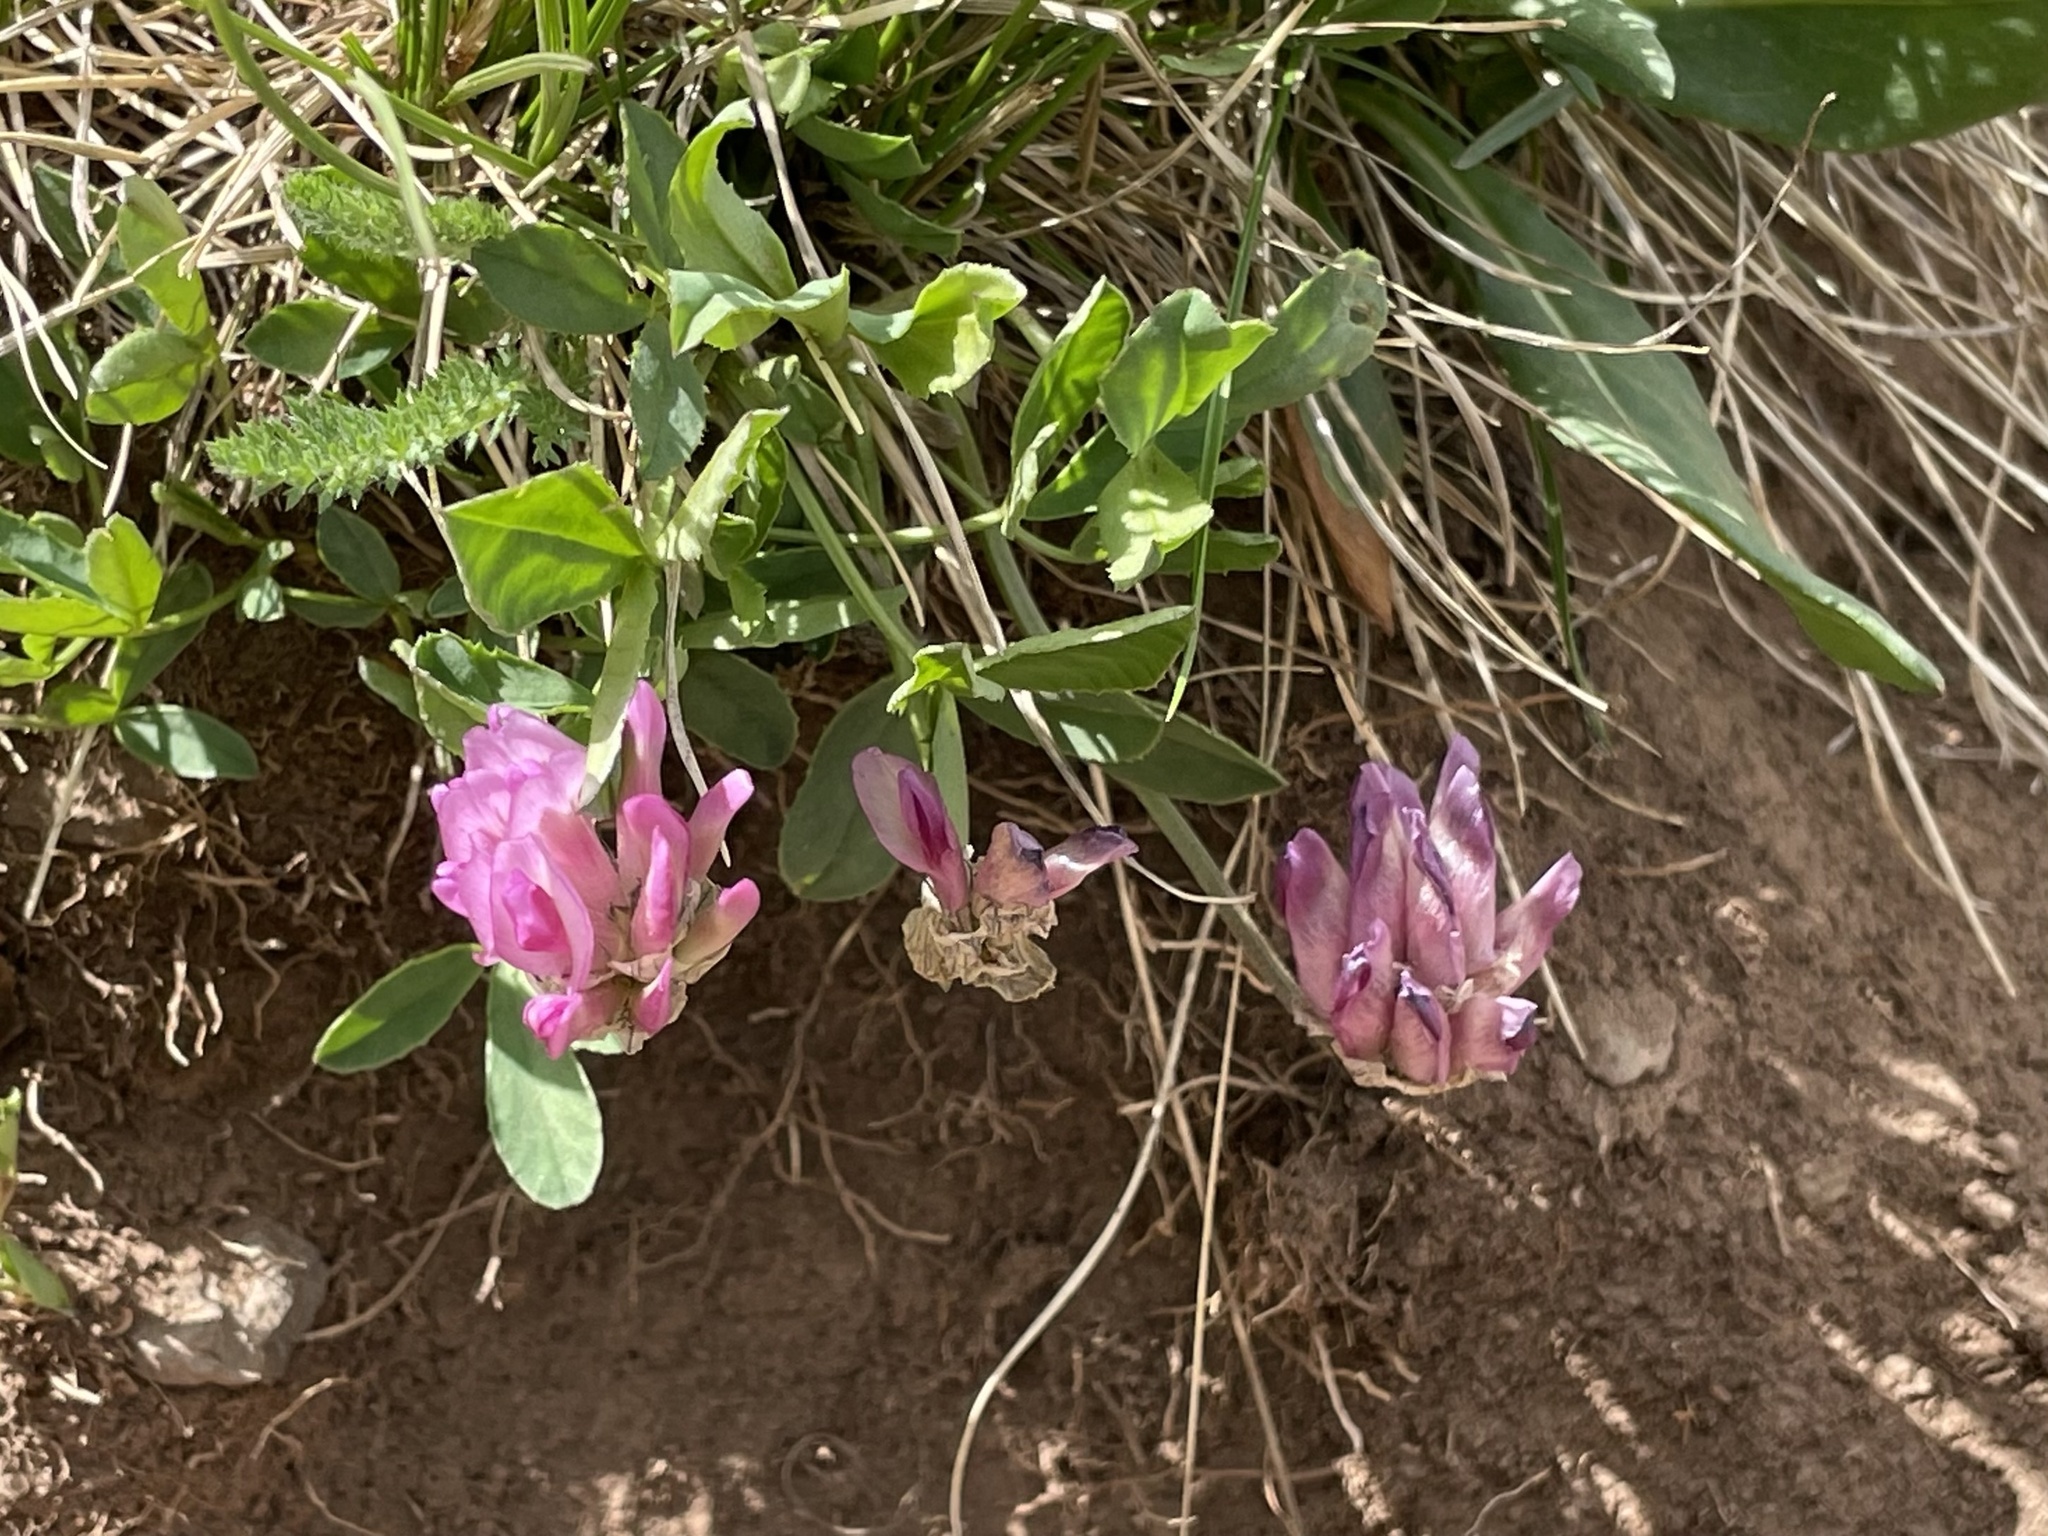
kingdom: Plantae
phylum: Tracheophyta
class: Magnoliopsida
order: Fabales
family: Fabaceae
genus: Trifolium
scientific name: Trifolium parryi
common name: Parry's clover
